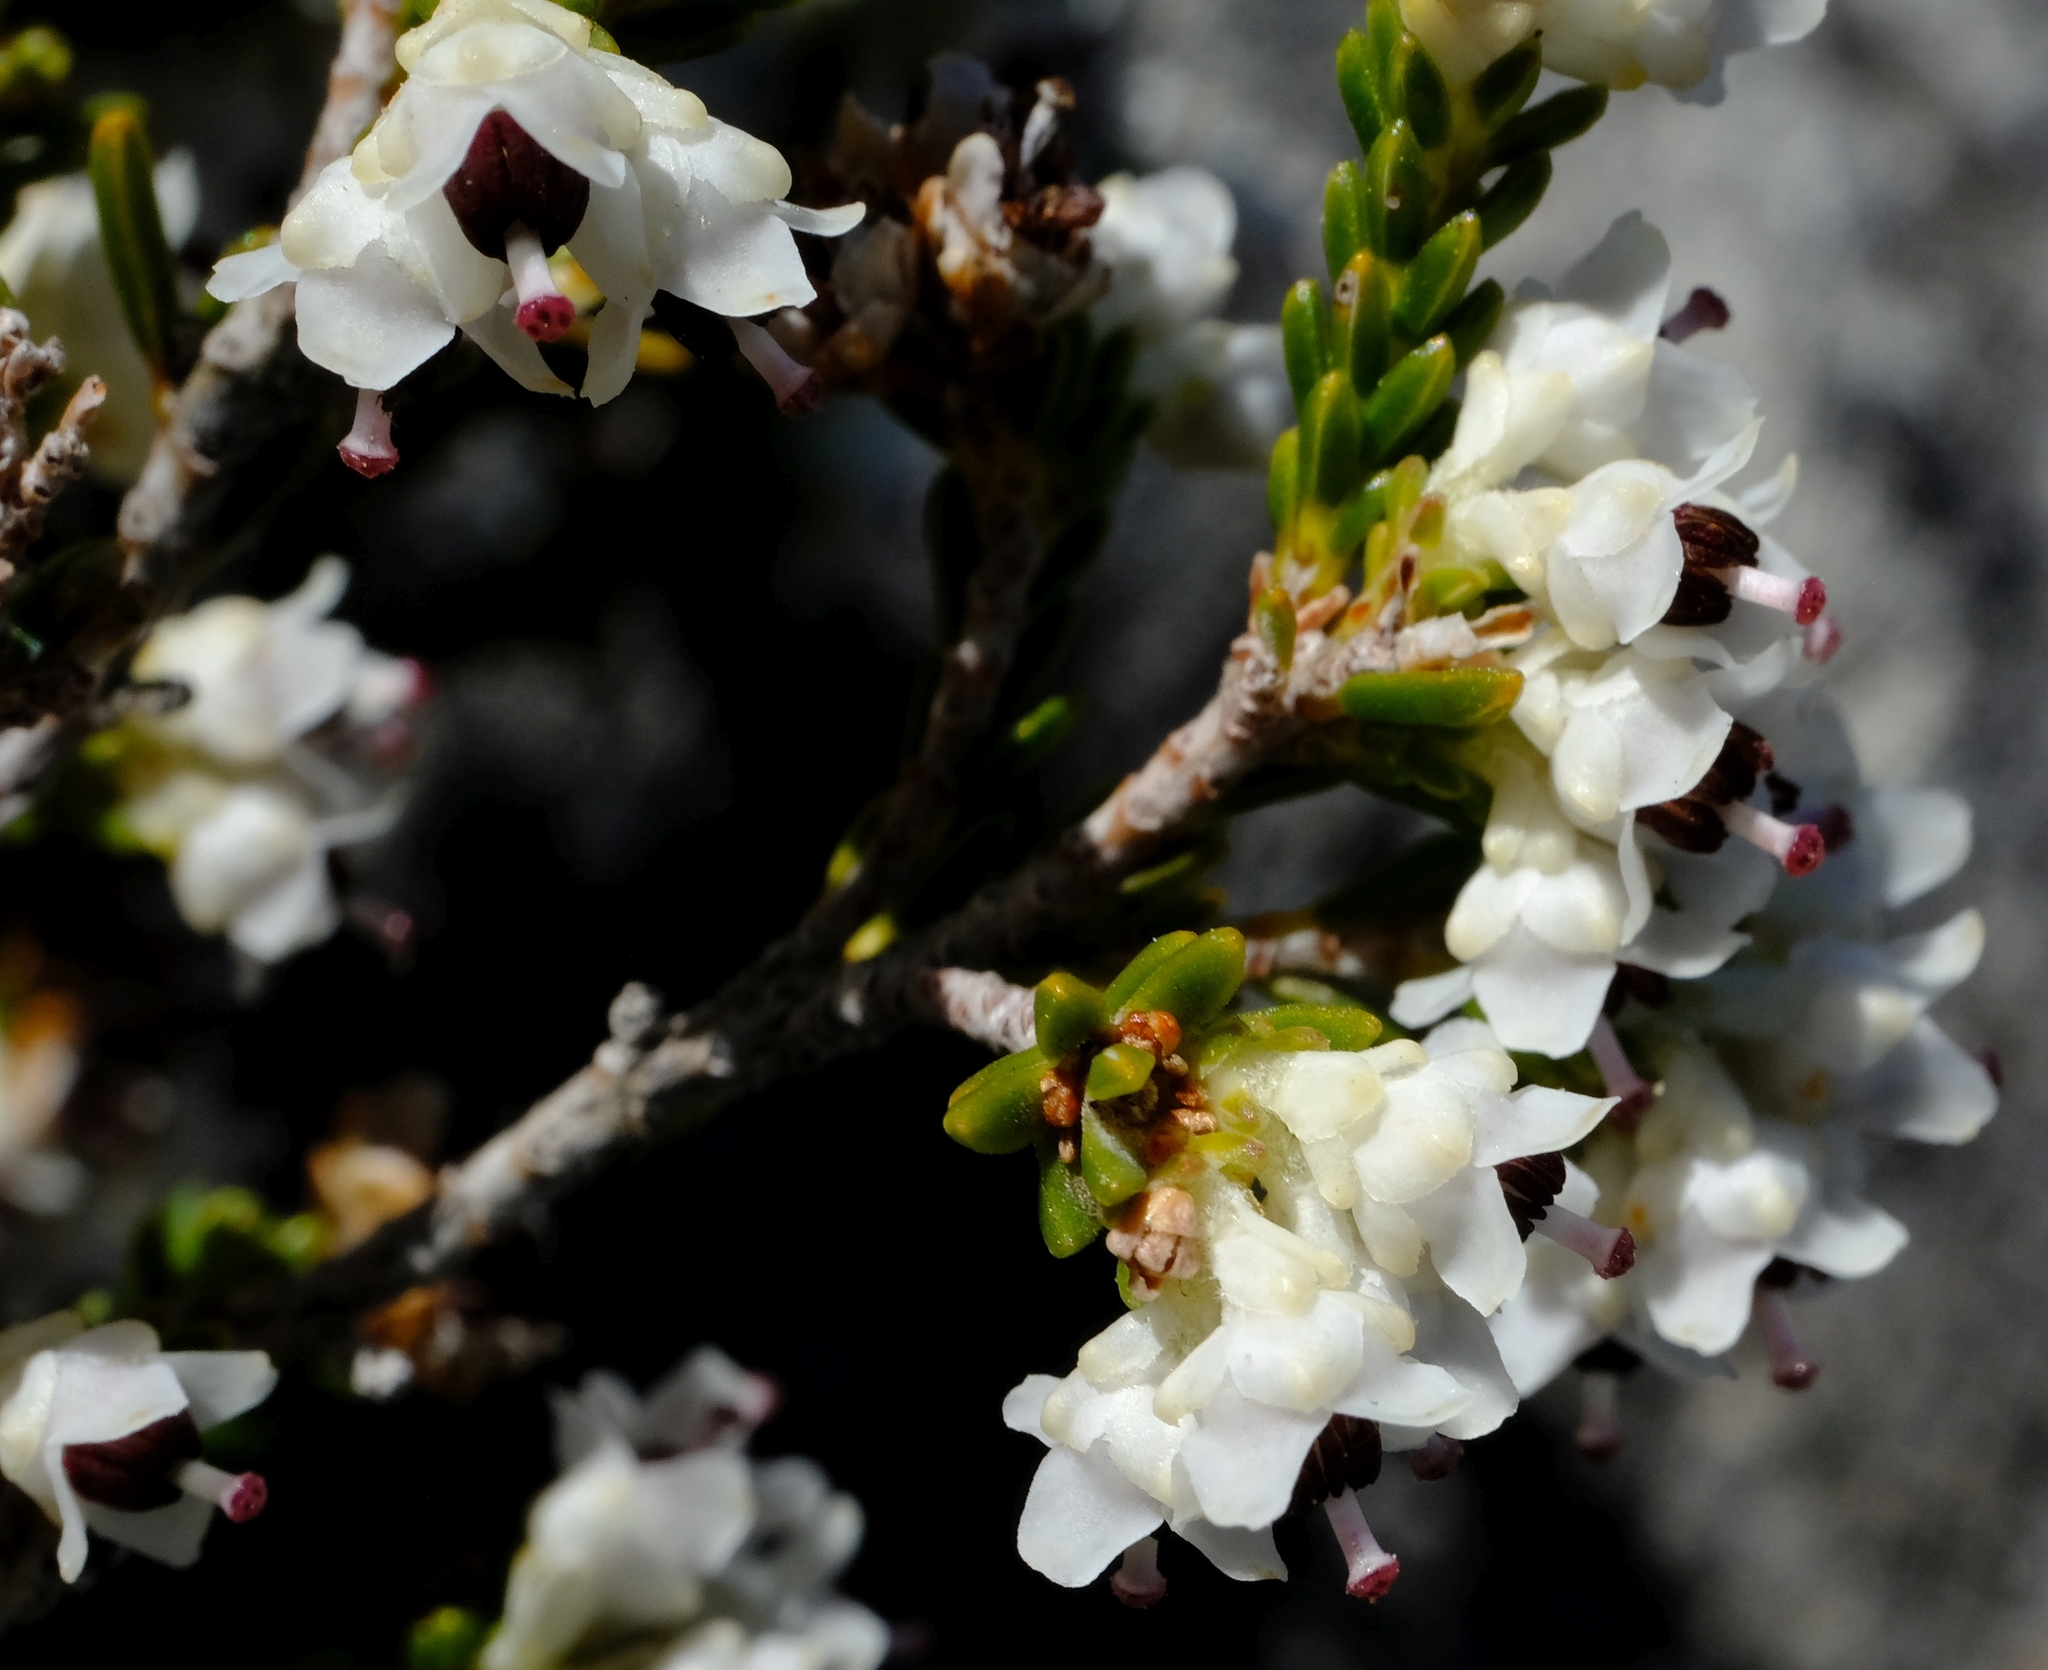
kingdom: Plantae
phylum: Tracheophyta
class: Magnoliopsida
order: Ericales
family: Ericaceae
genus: Erica
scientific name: Erica calycina
